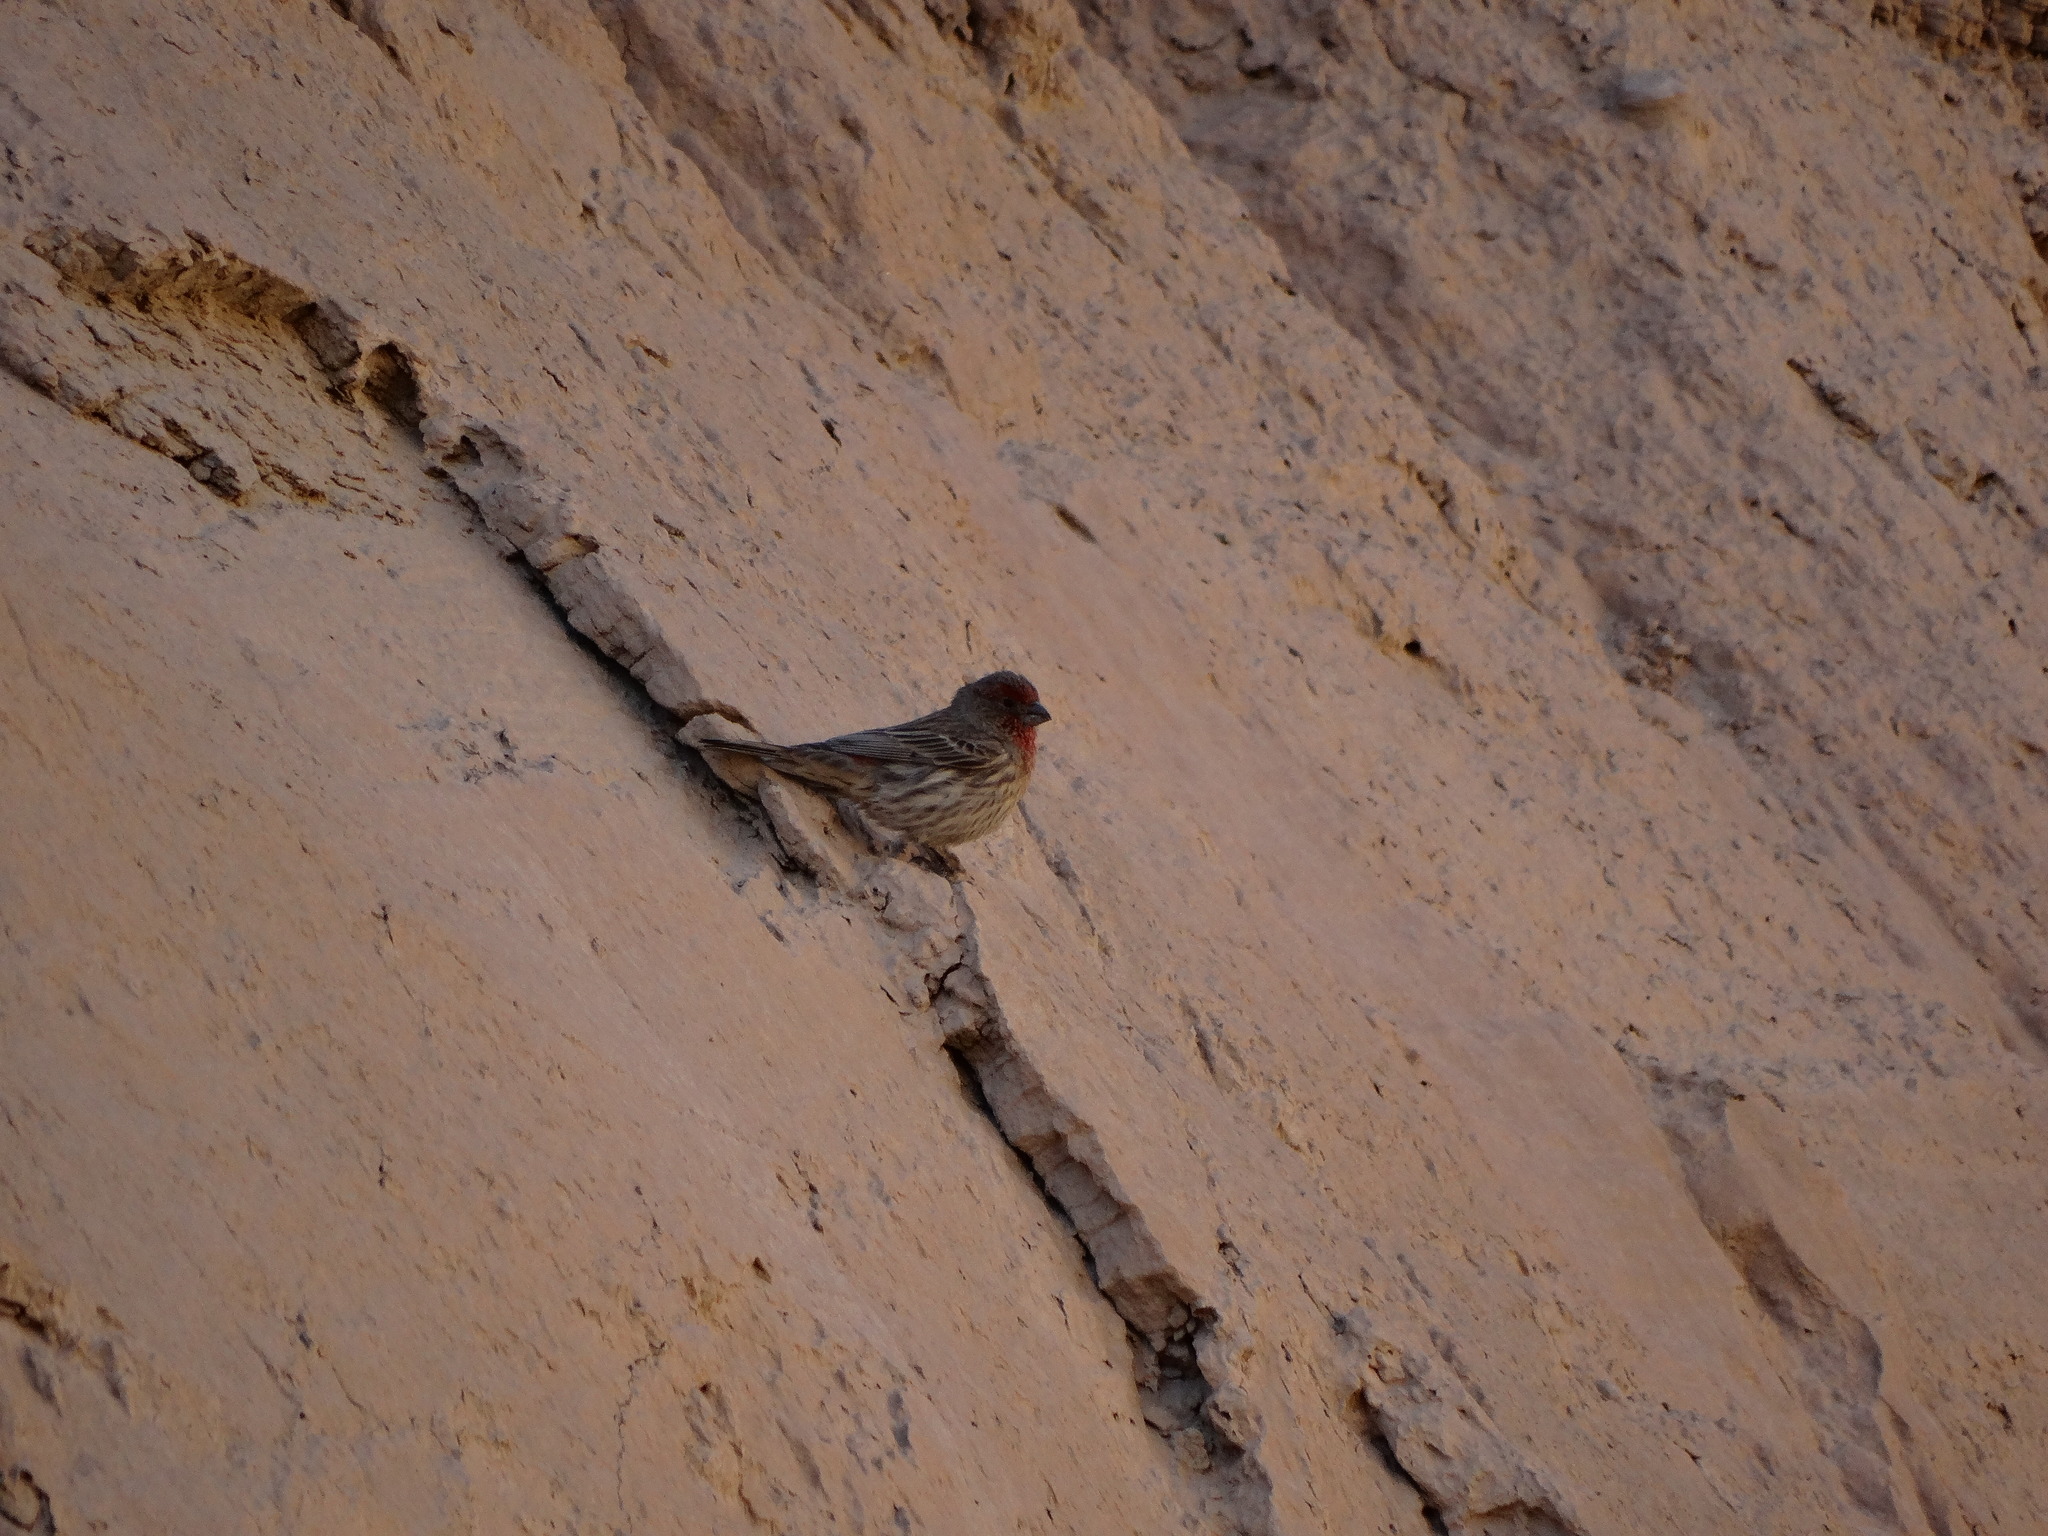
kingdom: Animalia
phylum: Chordata
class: Aves
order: Passeriformes
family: Fringillidae
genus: Haemorhous
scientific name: Haemorhous mexicanus
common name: House finch
